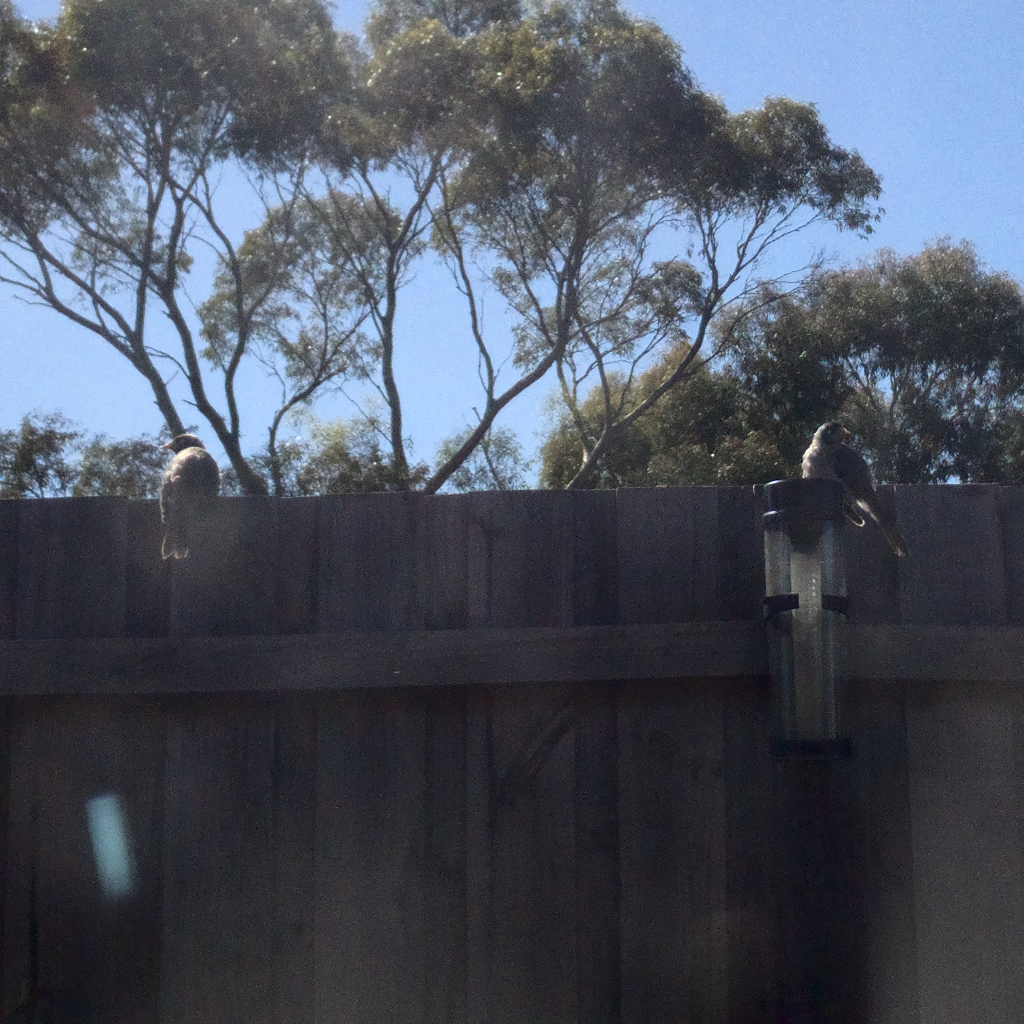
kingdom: Animalia
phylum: Chordata
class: Aves
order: Passeriformes
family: Meliphagidae
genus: Manorina
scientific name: Manorina melanocephala
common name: Noisy miner
